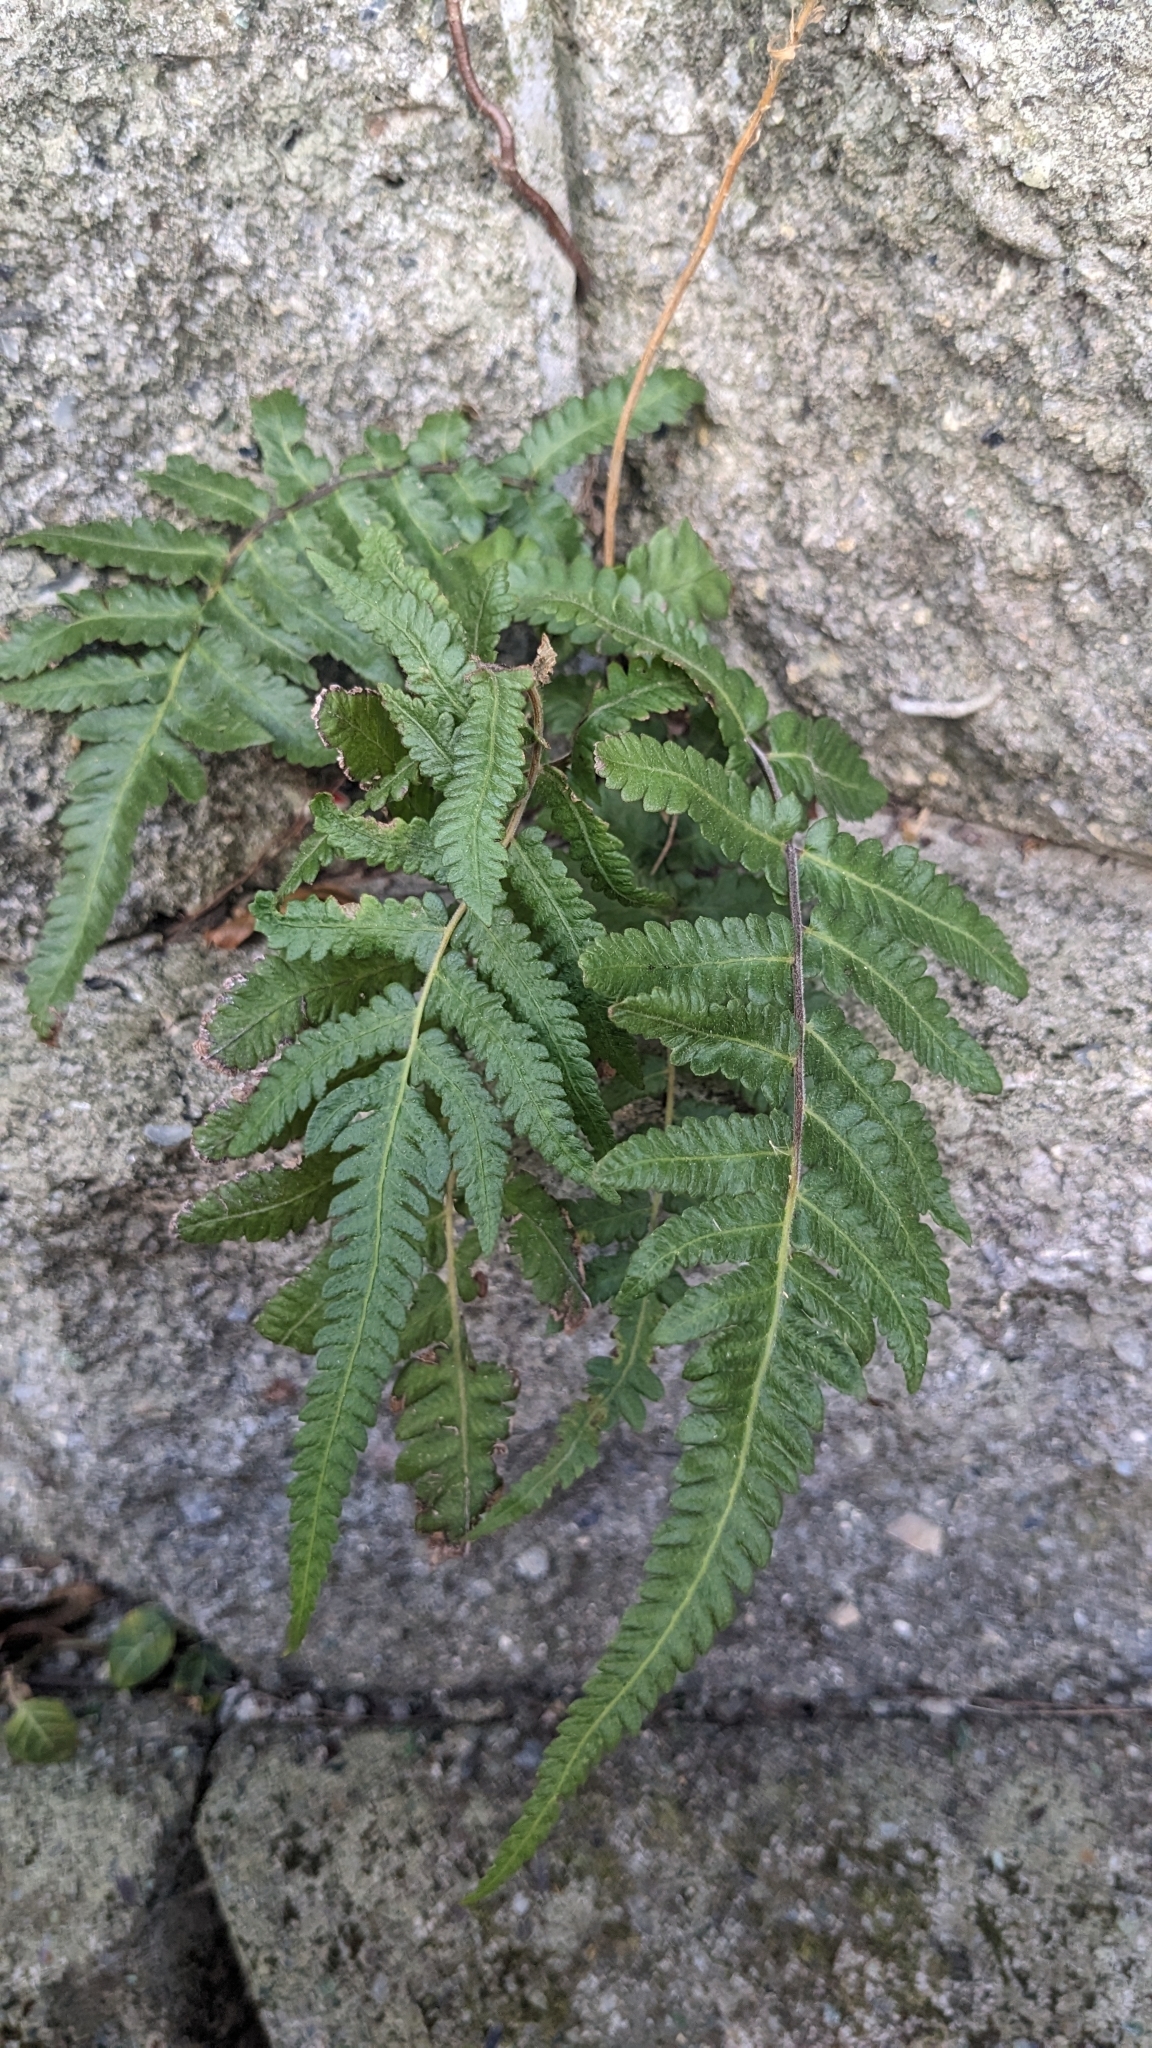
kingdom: Plantae
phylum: Tracheophyta
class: Polypodiopsida
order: Polypodiales
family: Thelypteridaceae
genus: Christella
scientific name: Christella acuminata
